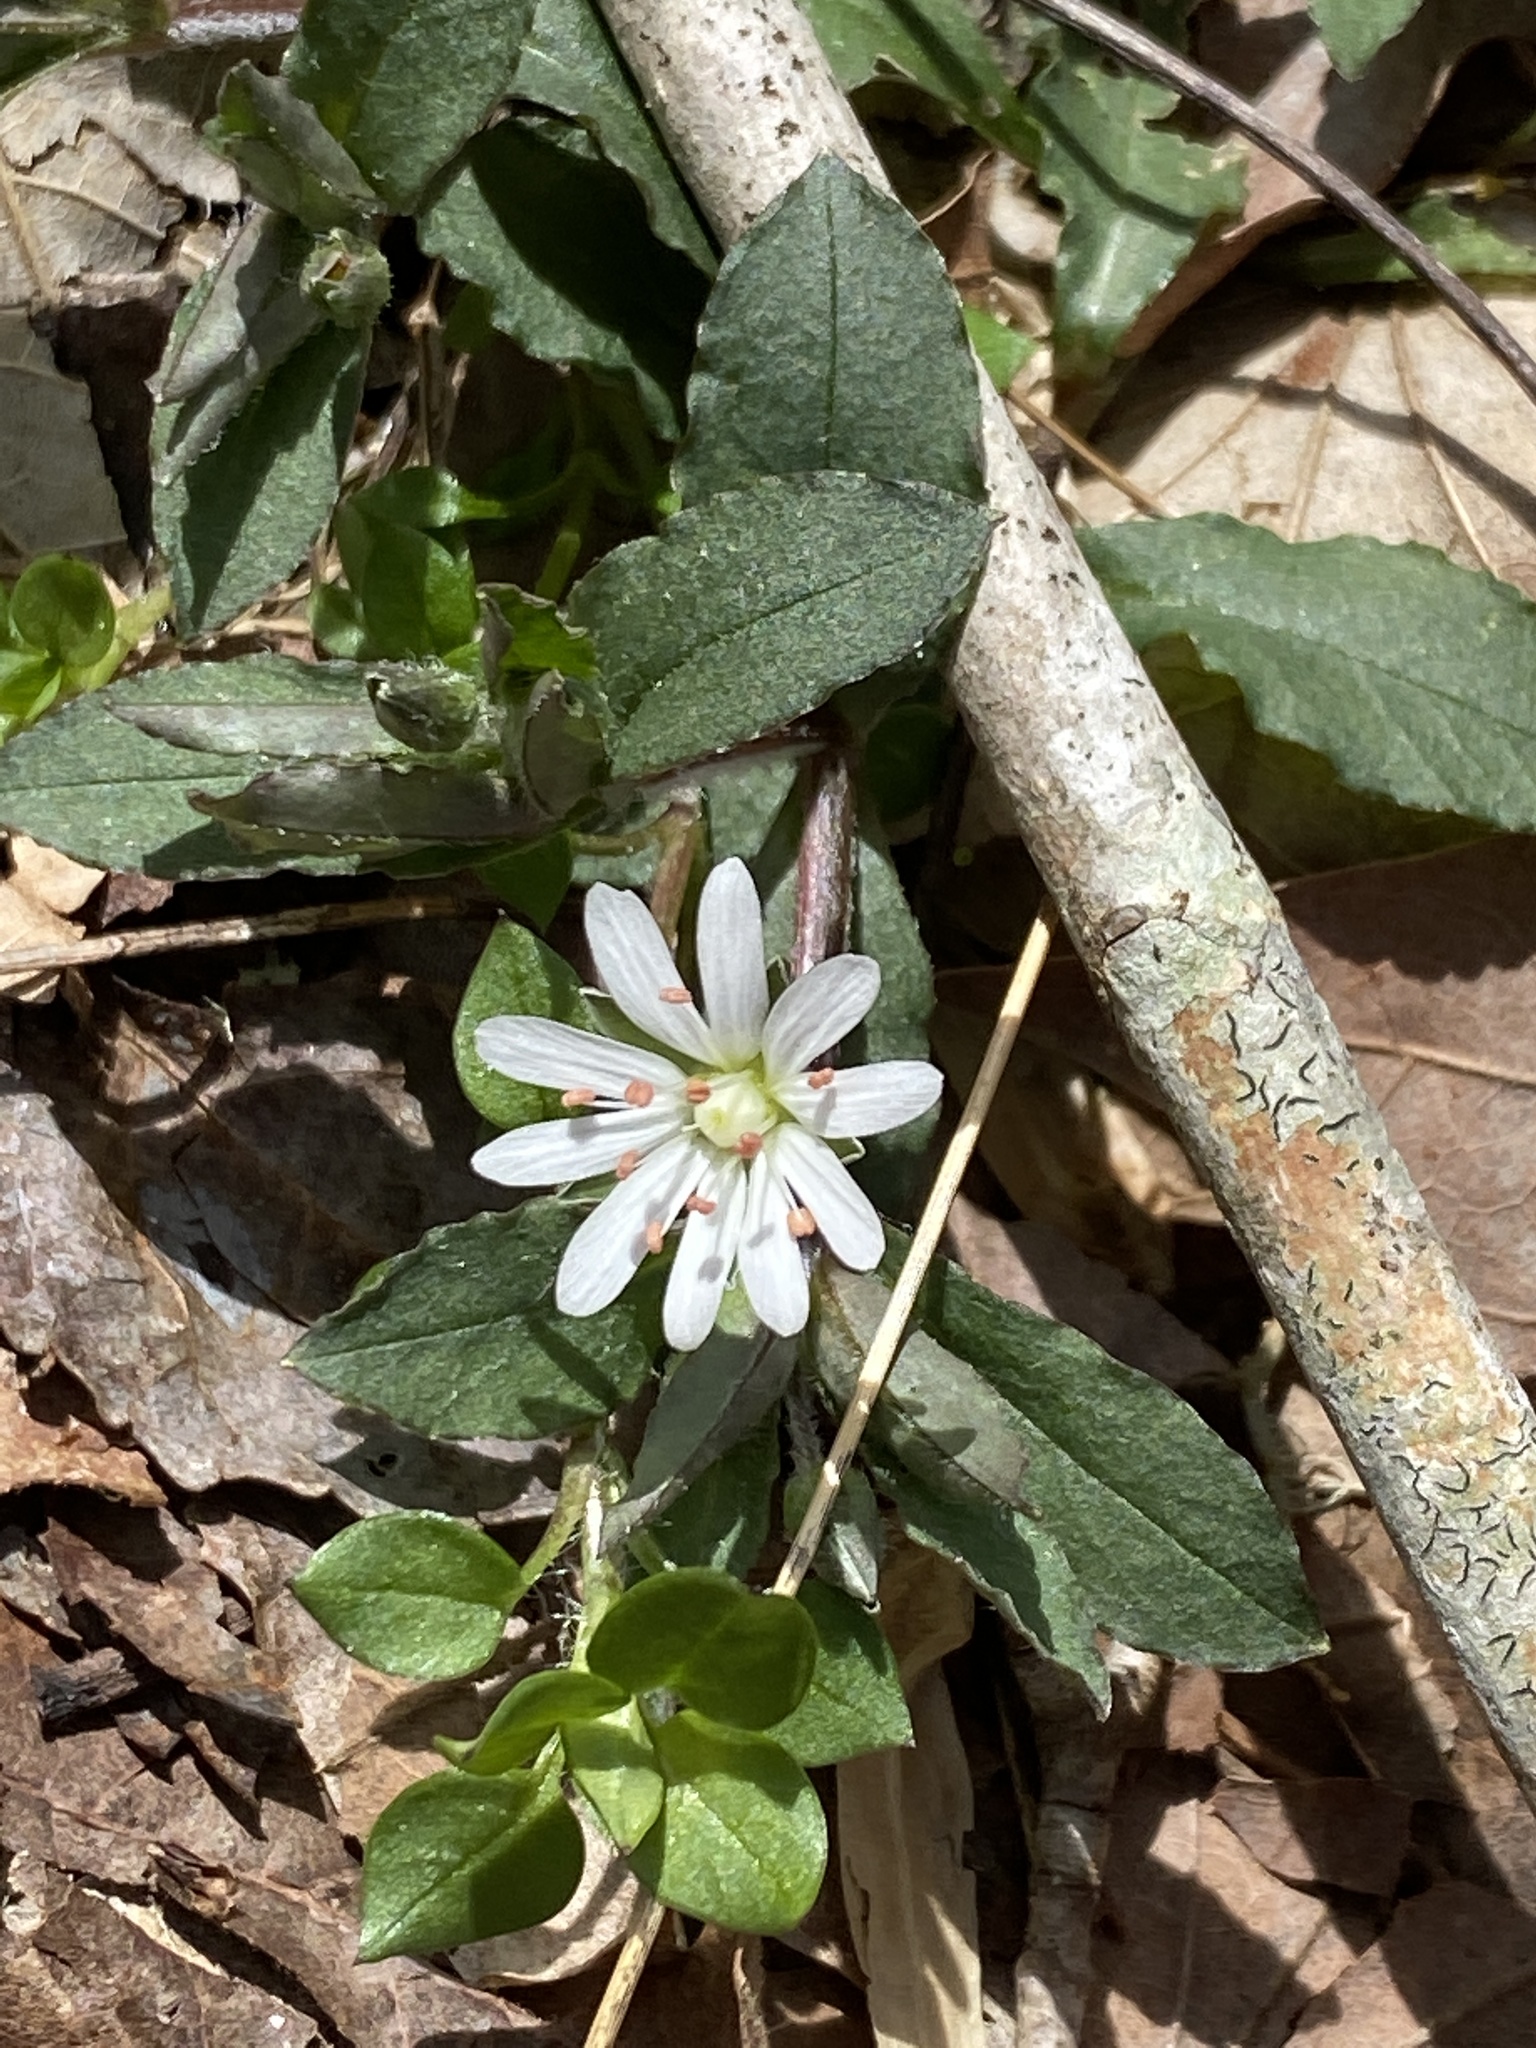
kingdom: Plantae
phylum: Tracheophyta
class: Magnoliopsida
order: Caryophyllales
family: Caryophyllaceae
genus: Stellaria
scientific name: Stellaria pubera
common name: Star chickweed
